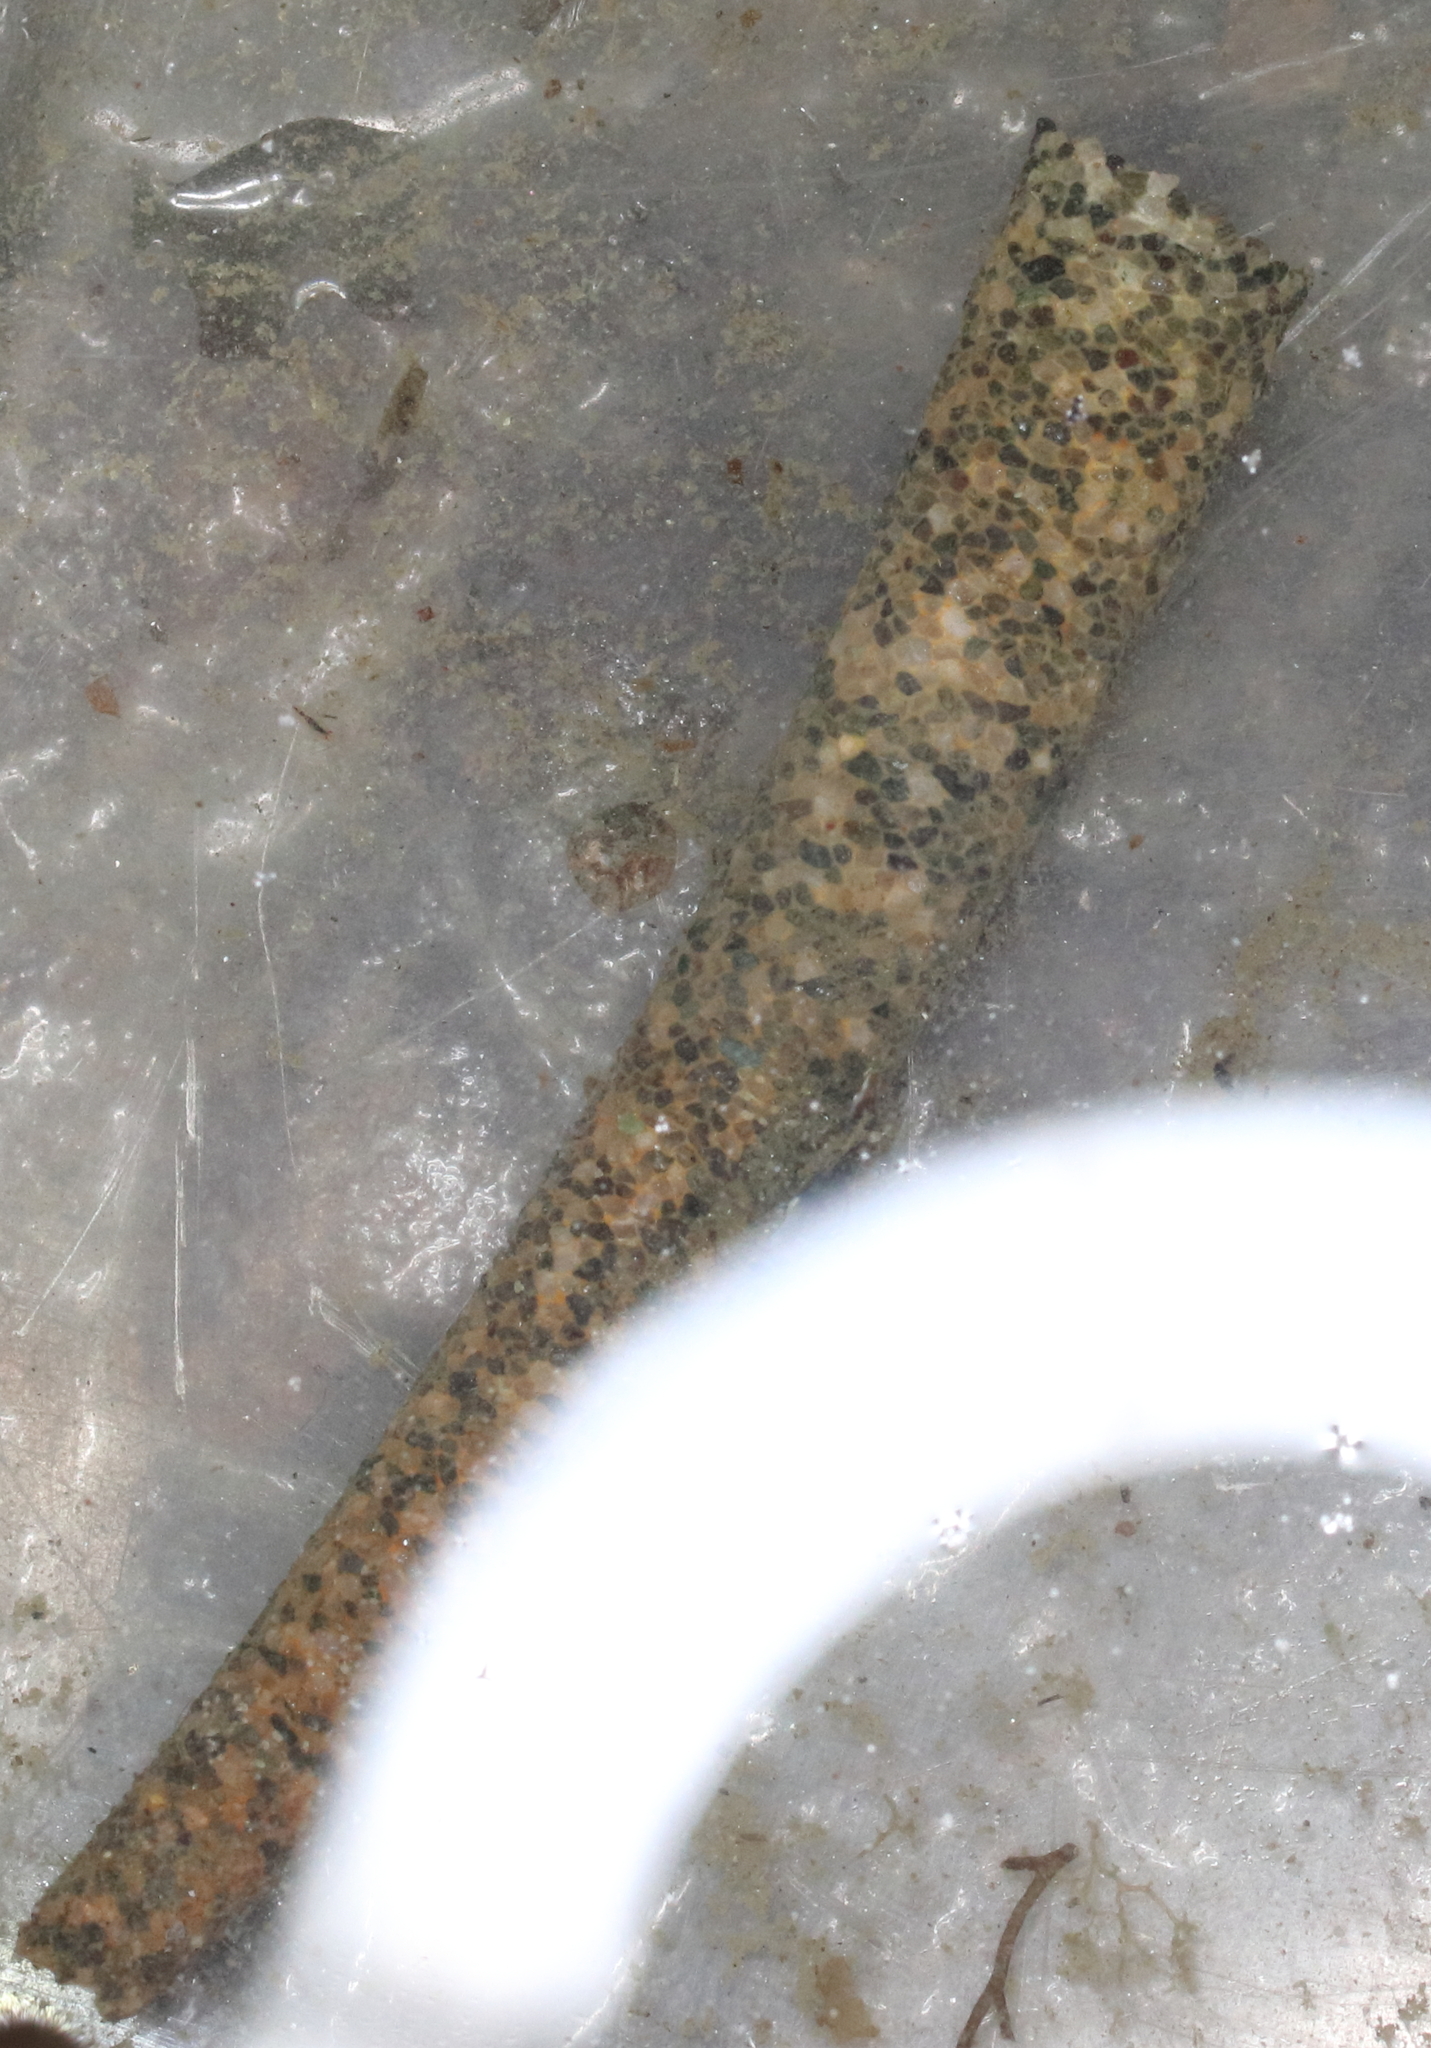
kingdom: Animalia
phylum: Annelida
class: Polychaeta
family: Pectinariidae
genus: Cistenides
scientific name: Cistenides brevicoma
